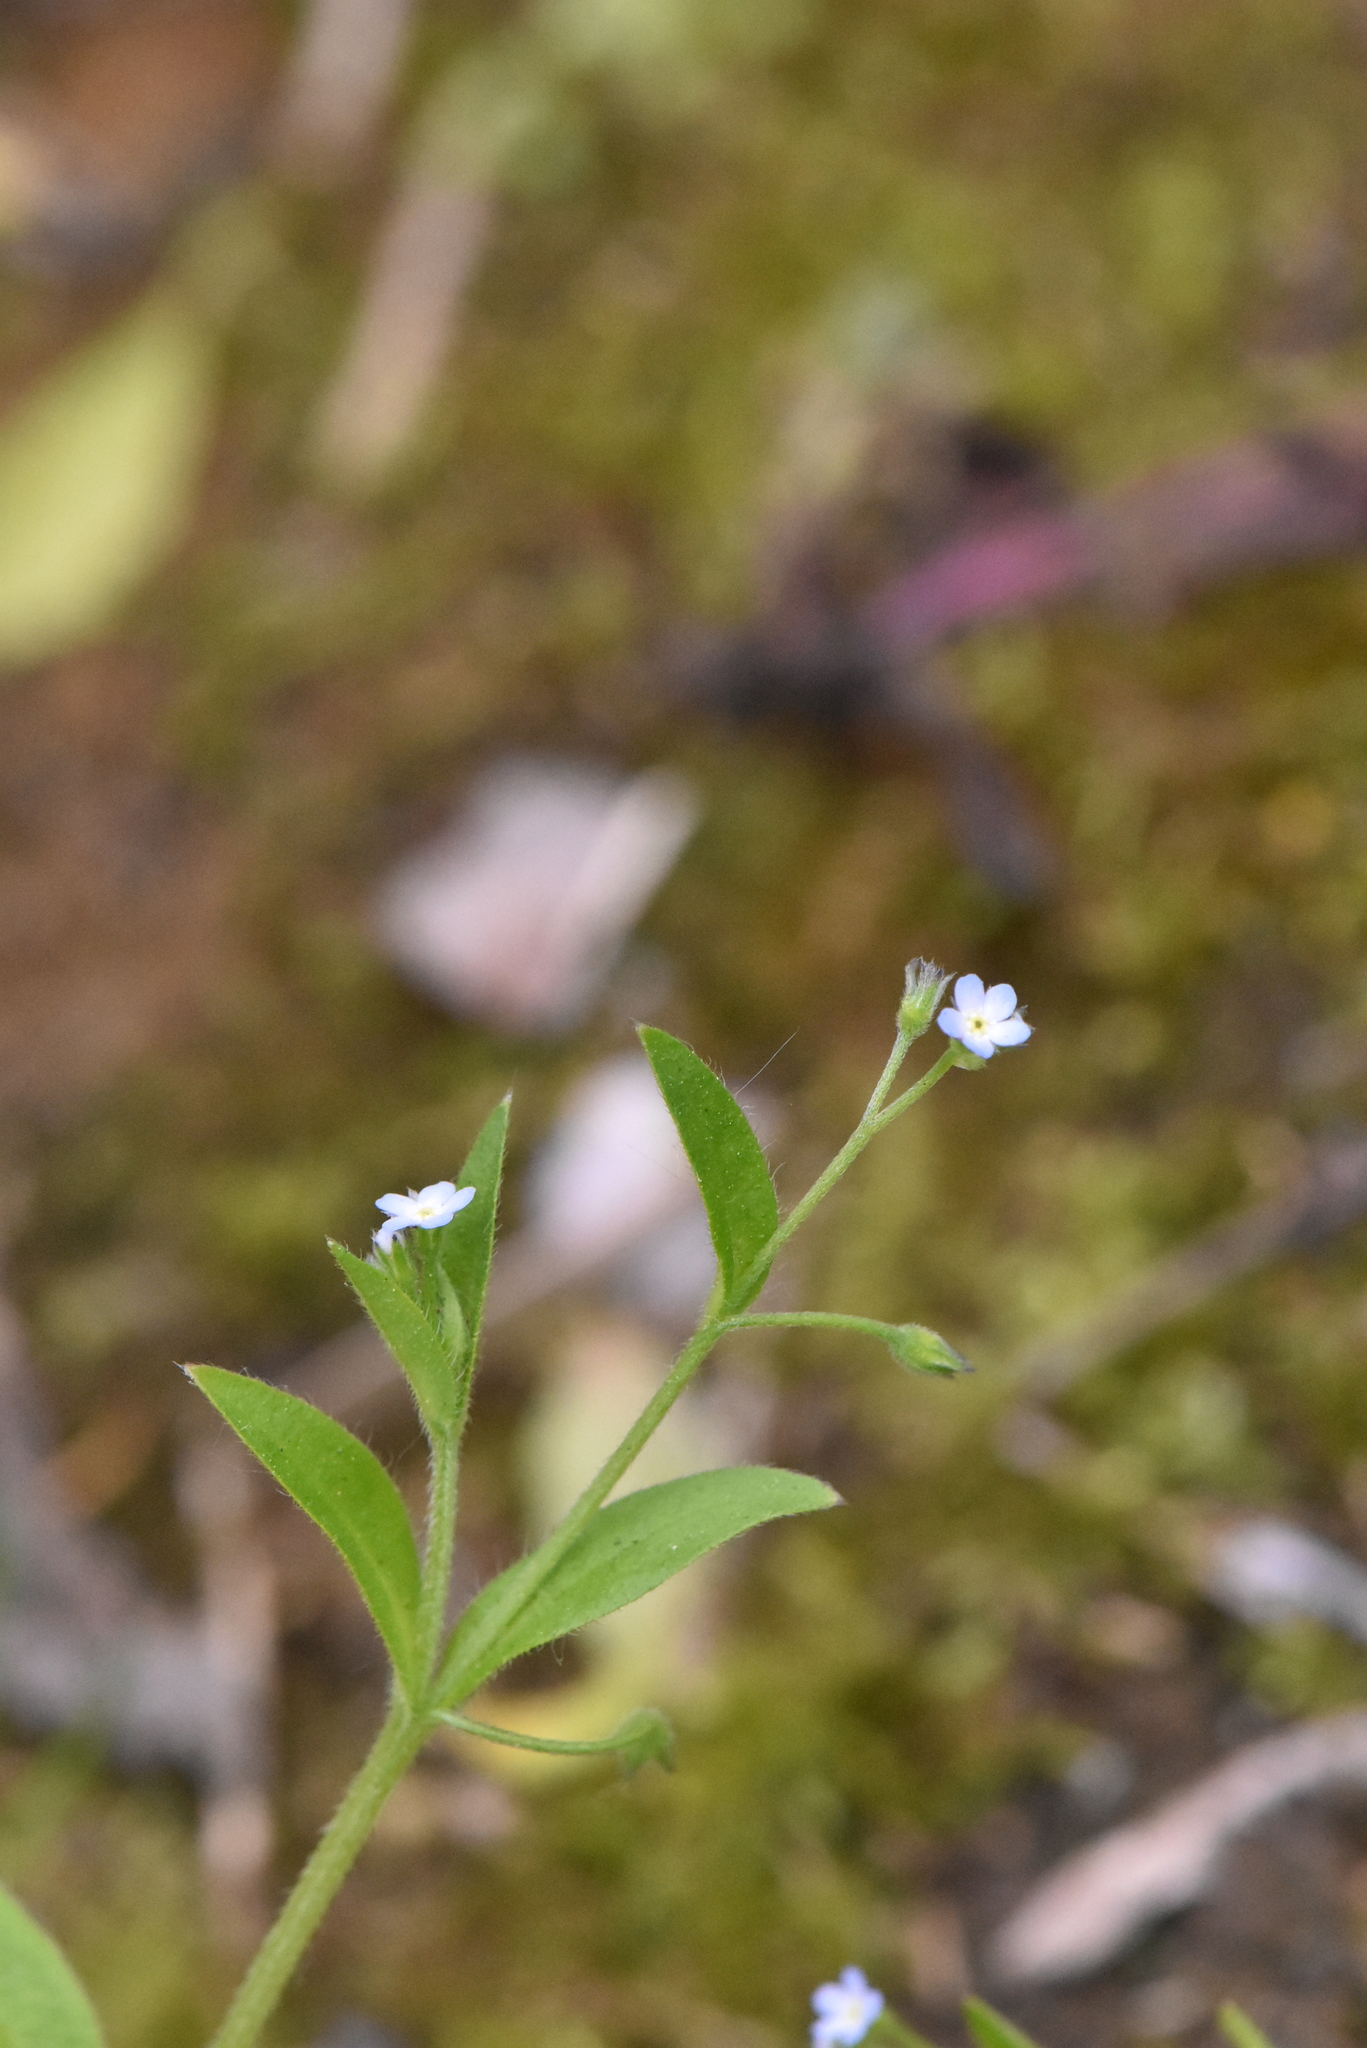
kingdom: Plantae
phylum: Tracheophyta
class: Magnoliopsida
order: Boraginales
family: Boraginaceae
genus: Myosotis
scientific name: Myosotis sparsiflora
